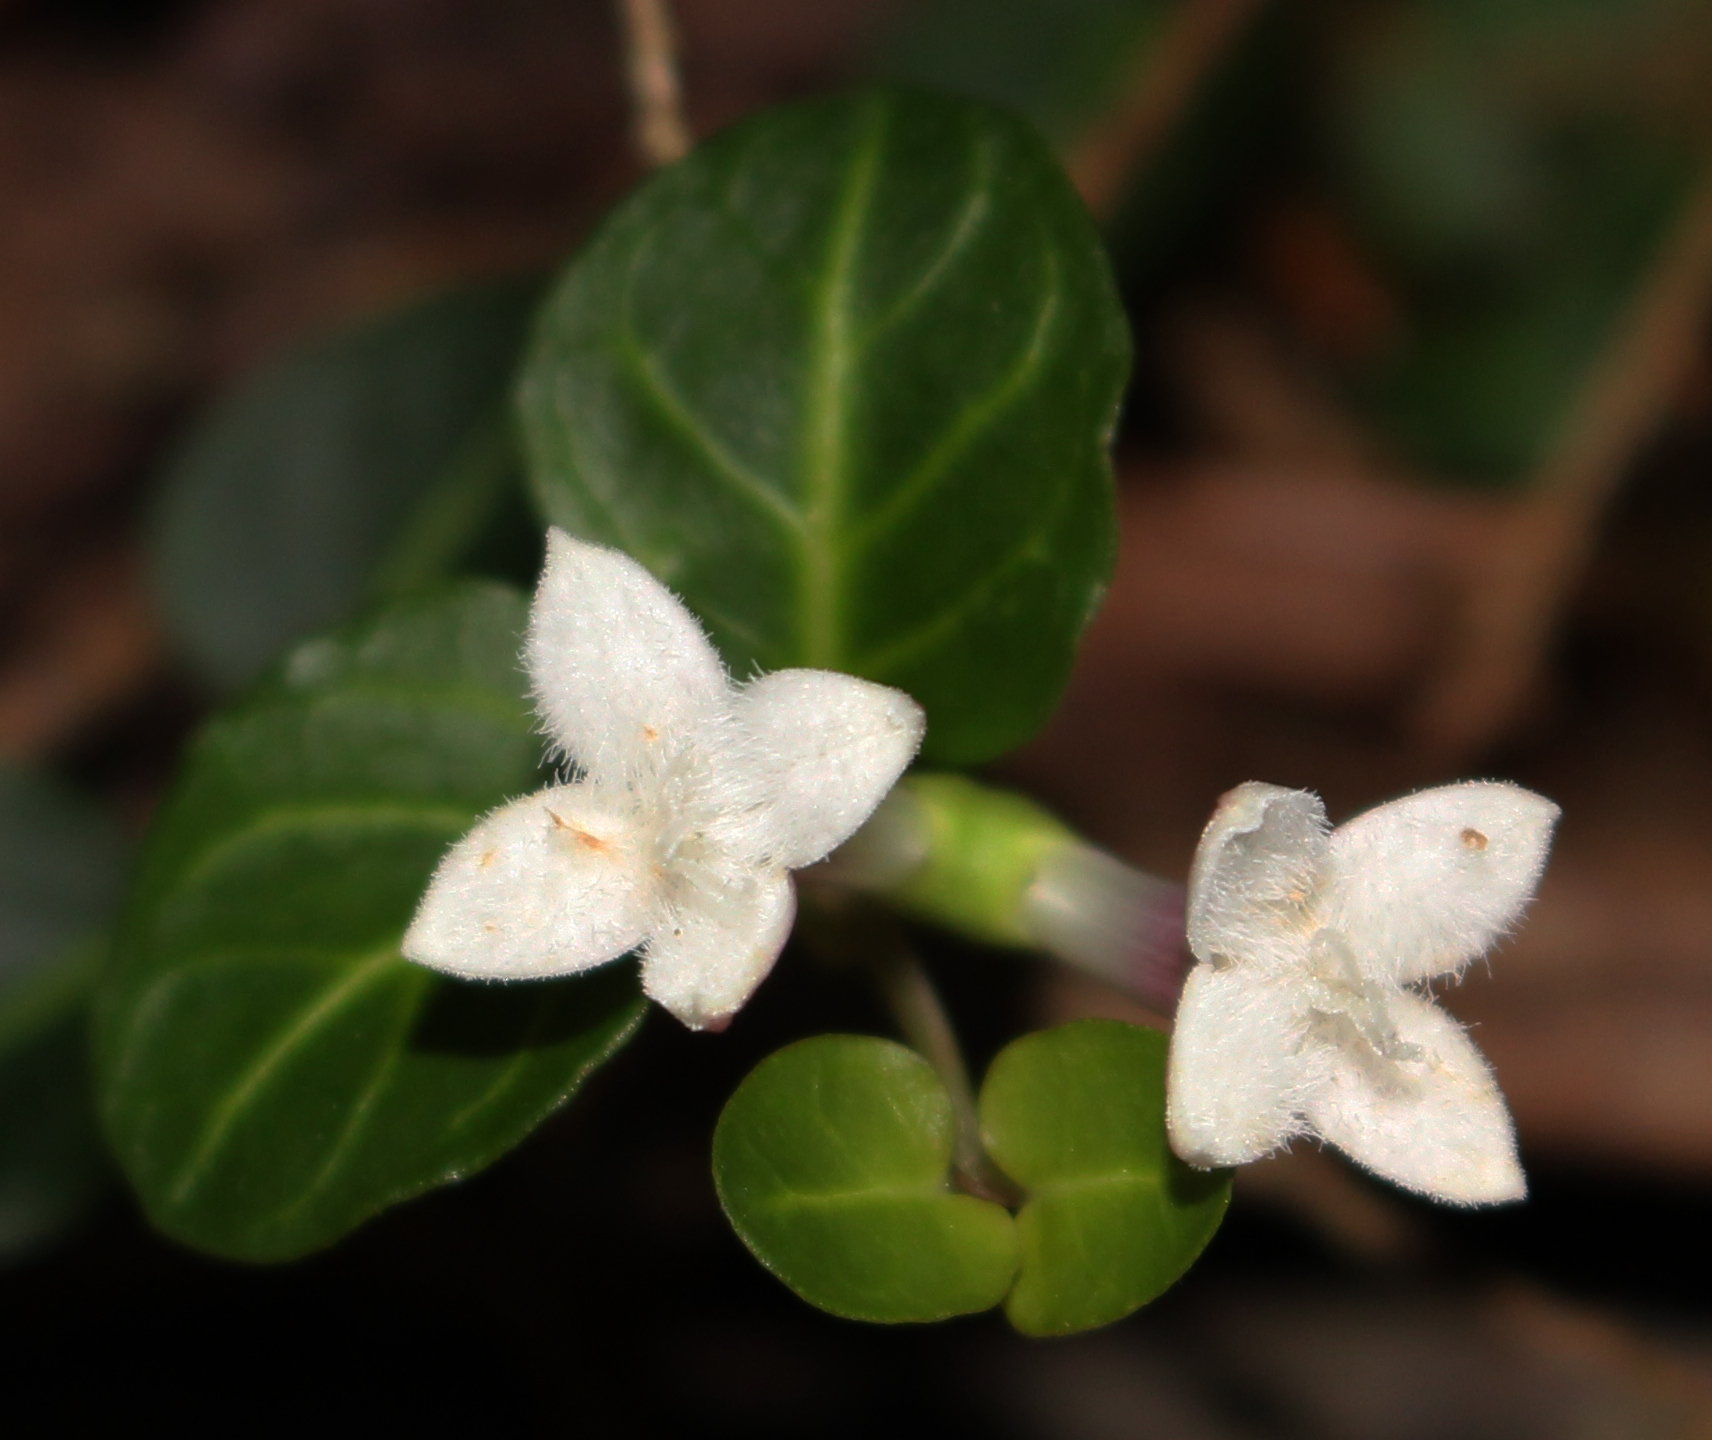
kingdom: Plantae
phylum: Tracheophyta
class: Magnoliopsida
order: Gentianales
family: Rubiaceae
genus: Mitchella
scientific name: Mitchella repens
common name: Partridge-berry
